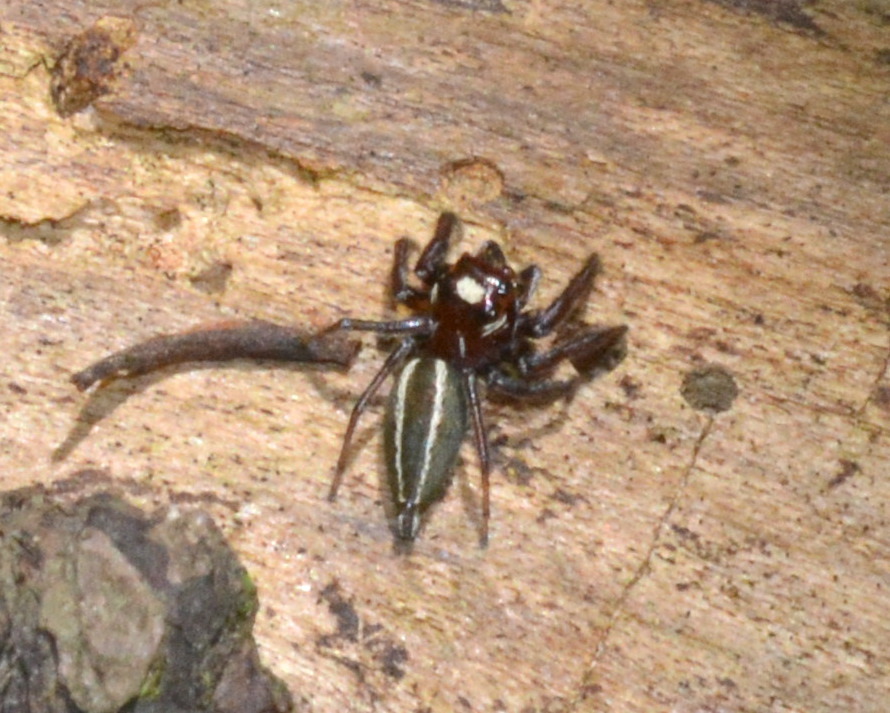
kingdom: Animalia
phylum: Arthropoda
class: Arachnida
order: Araneae
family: Salticidae
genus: Colonus
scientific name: Colonus sylvanus
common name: Jumping spiders
